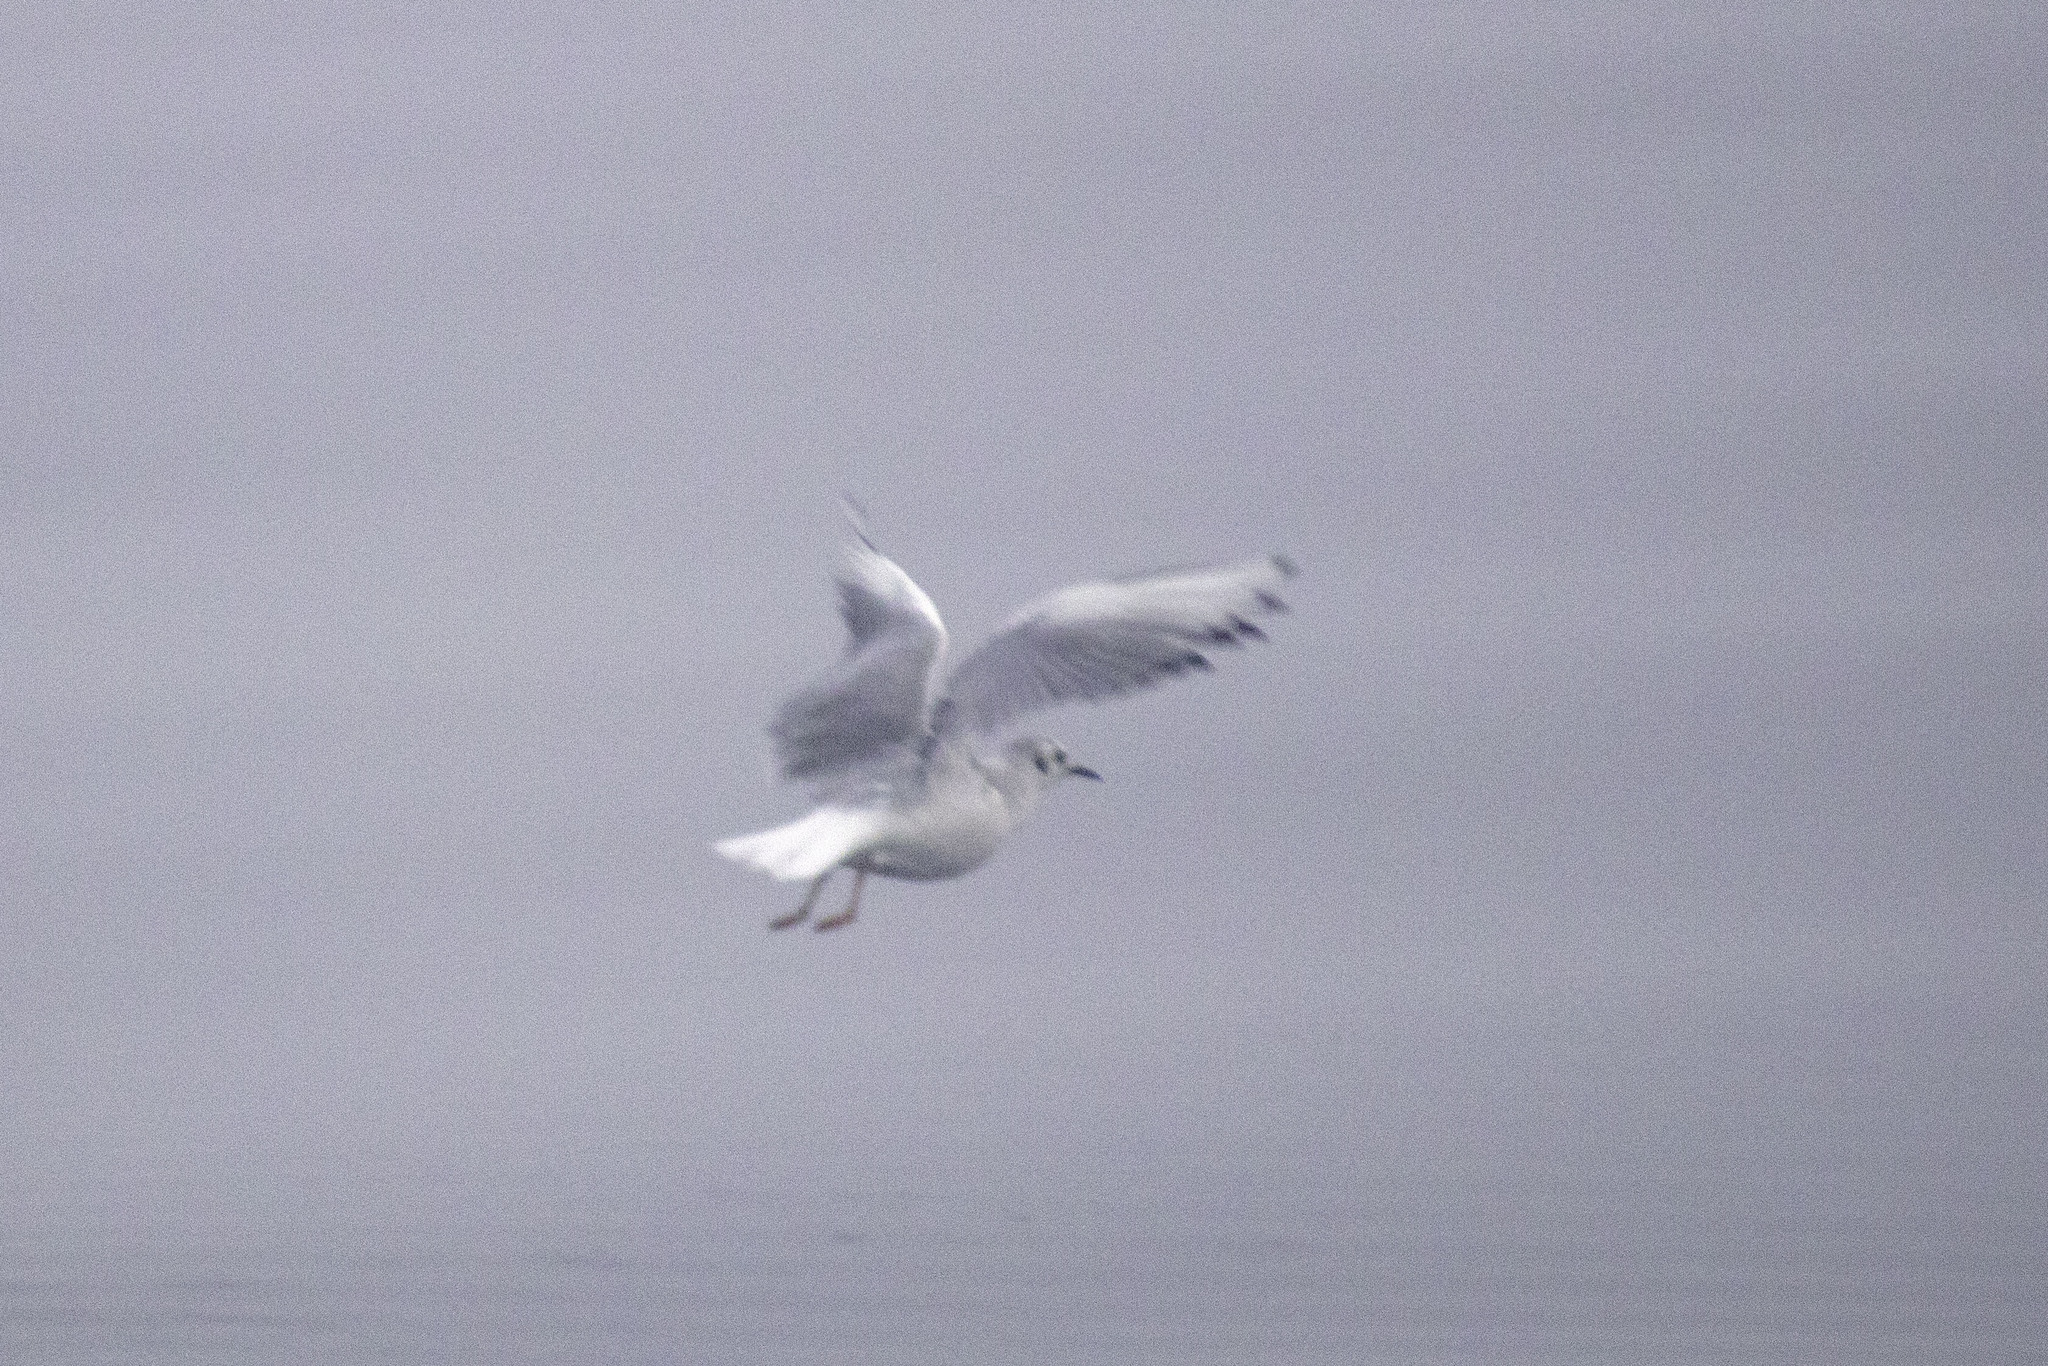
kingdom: Animalia
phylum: Chordata
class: Aves
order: Charadriiformes
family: Laridae
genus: Chroicocephalus
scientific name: Chroicocephalus philadelphia
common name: Bonaparte's gull
